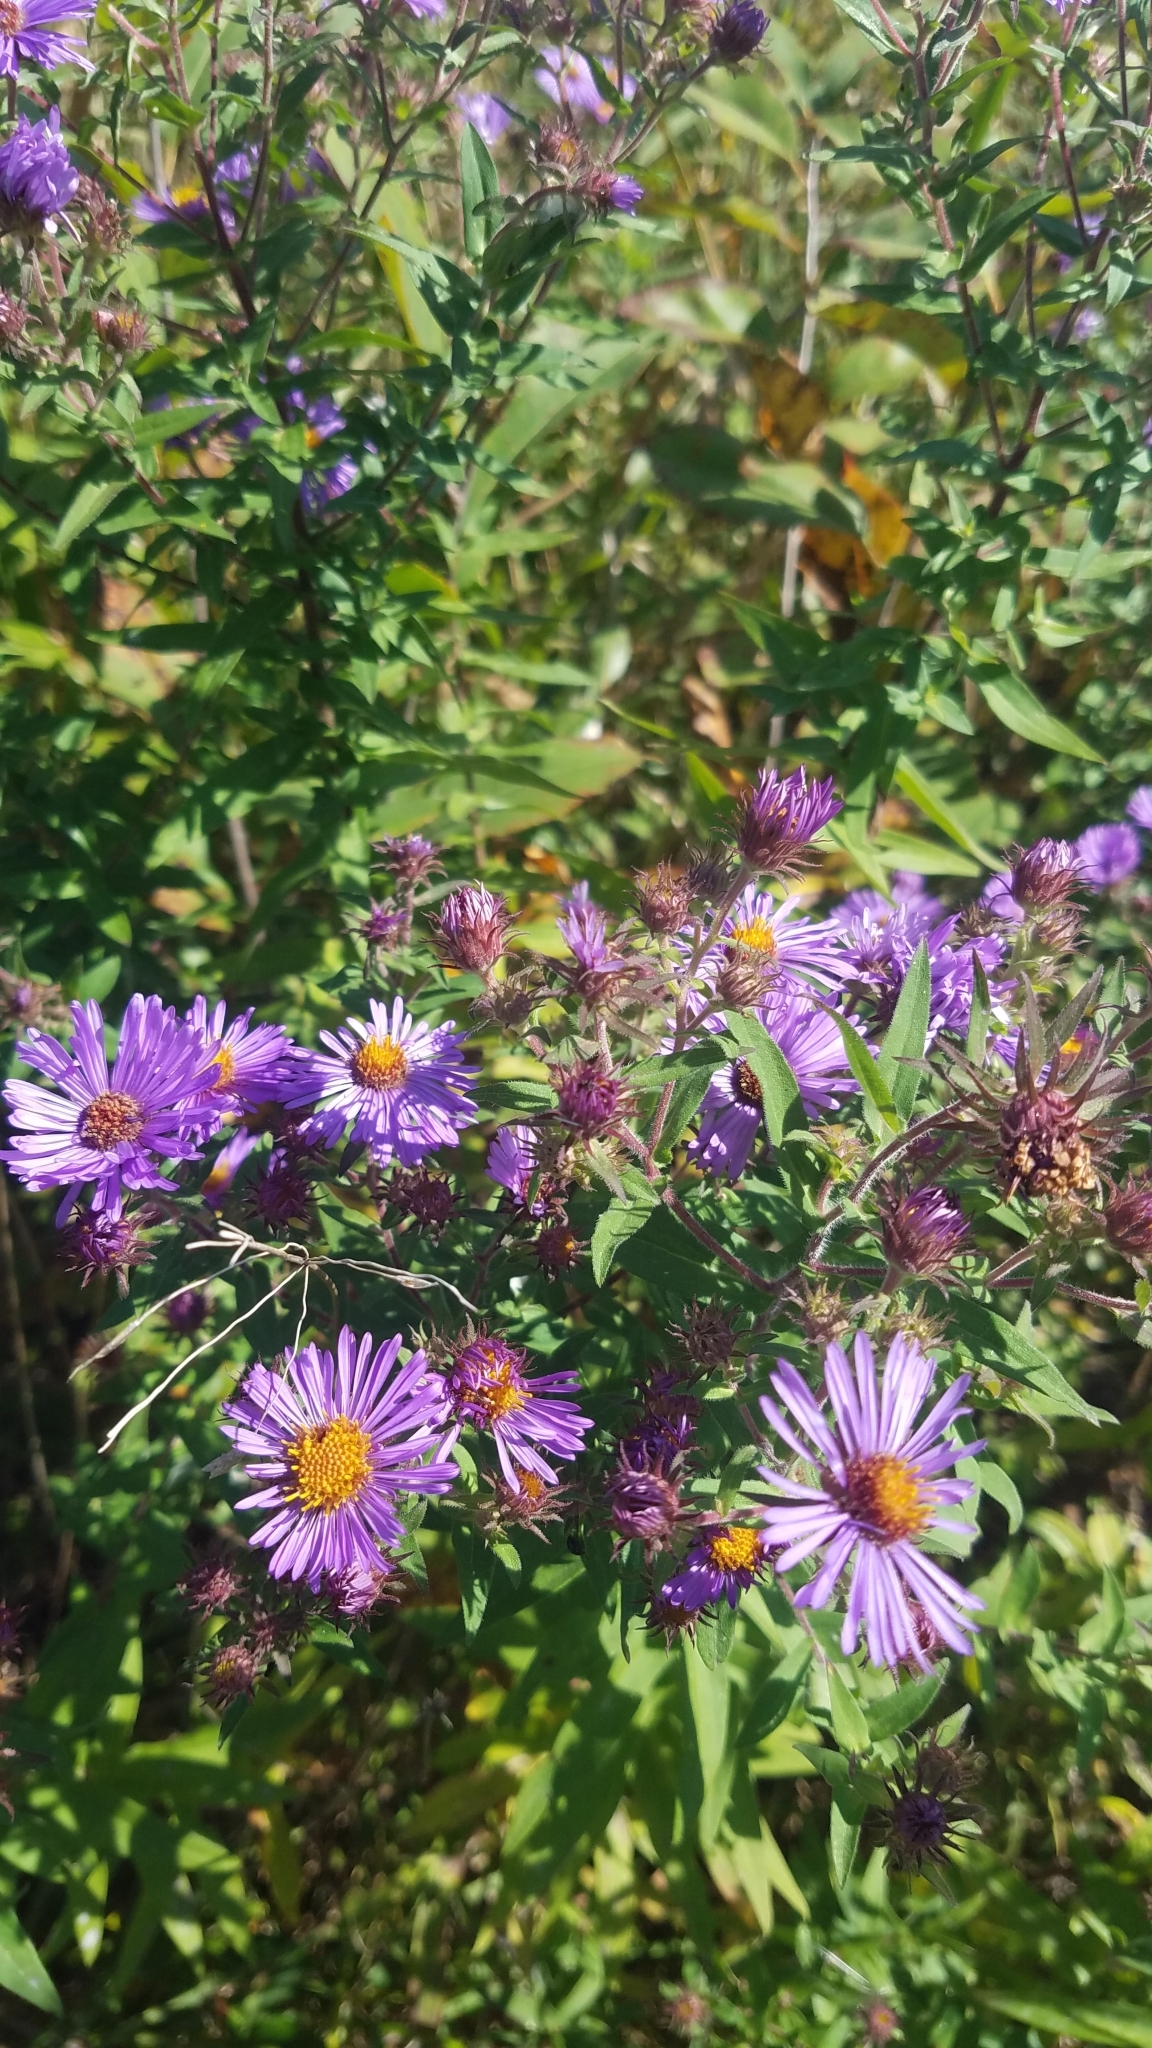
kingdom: Plantae
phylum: Tracheophyta
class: Magnoliopsida
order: Asterales
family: Asteraceae
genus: Symphyotrichum
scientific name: Symphyotrichum novae-angliae
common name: Michaelmas daisy
